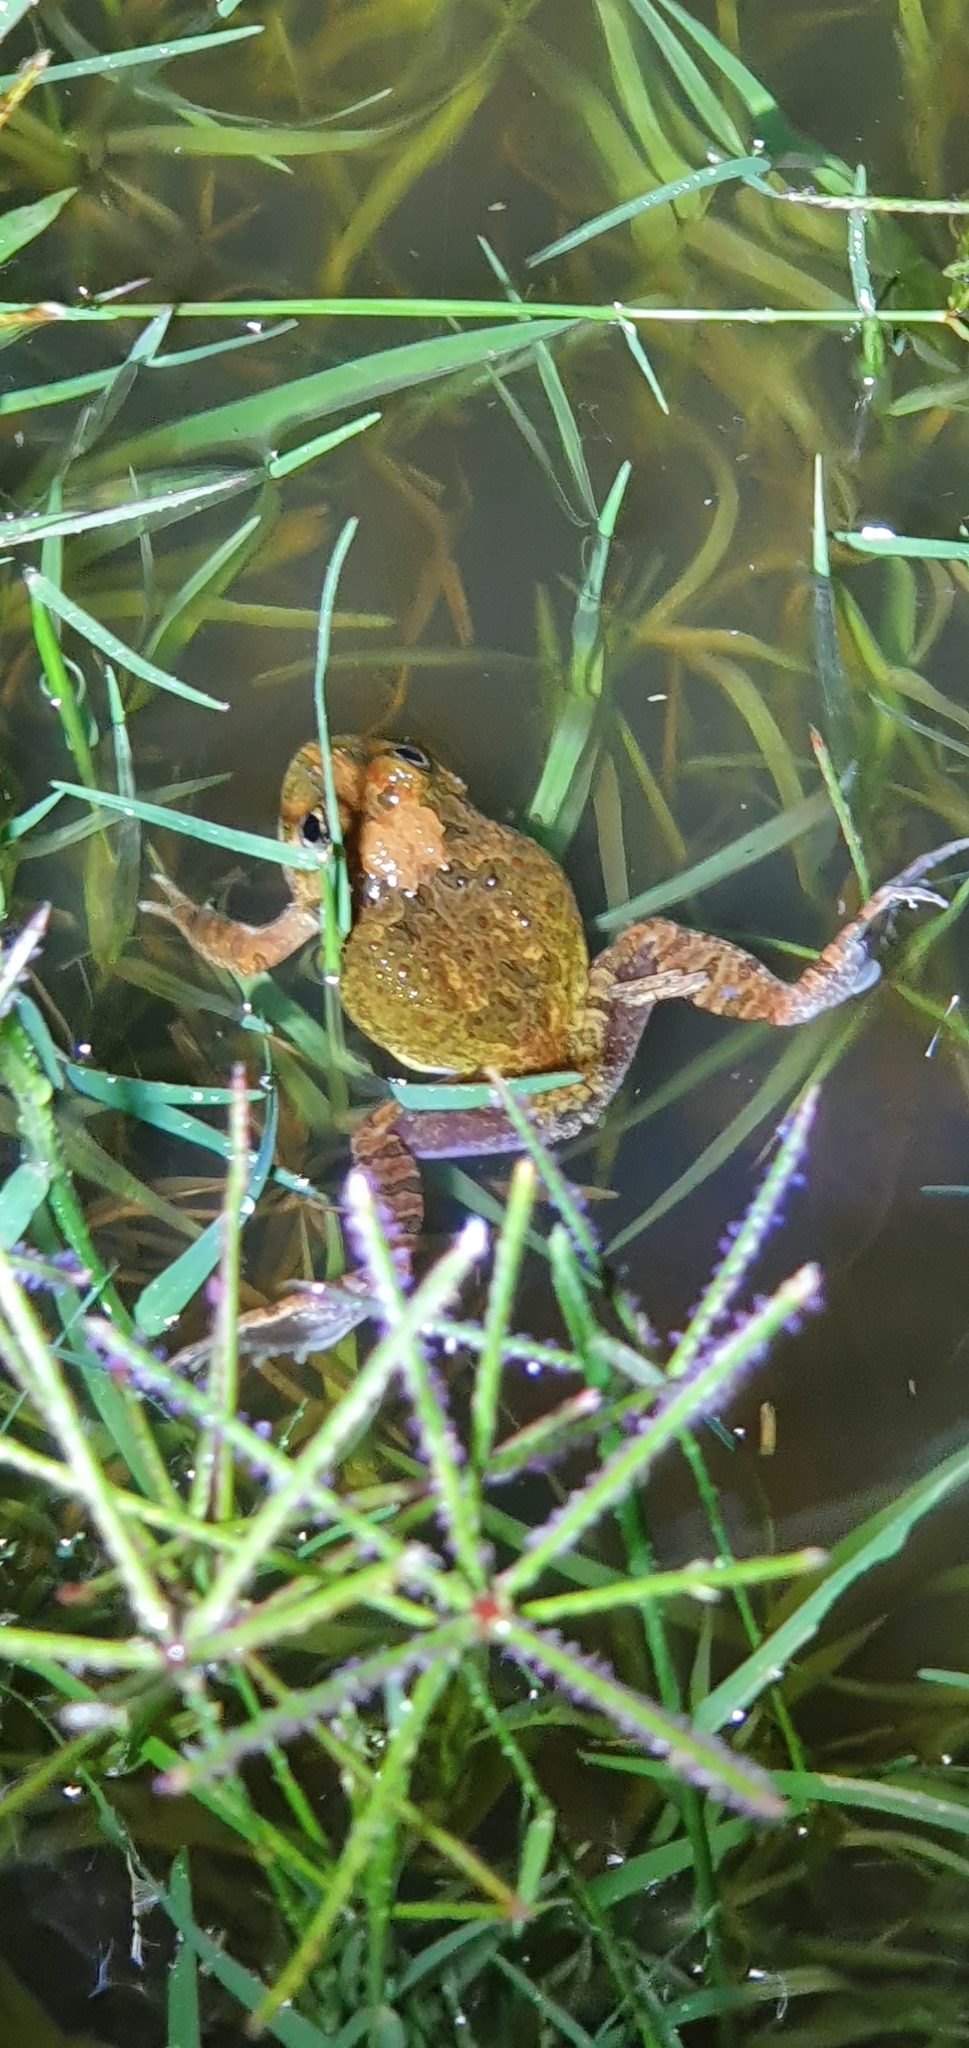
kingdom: Animalia
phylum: Chordata
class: Amphibia
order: Anura
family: Limnodynastidae
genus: Platyplectrum
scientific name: Platyplectrum ornatum
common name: Ornate burrowing frog
